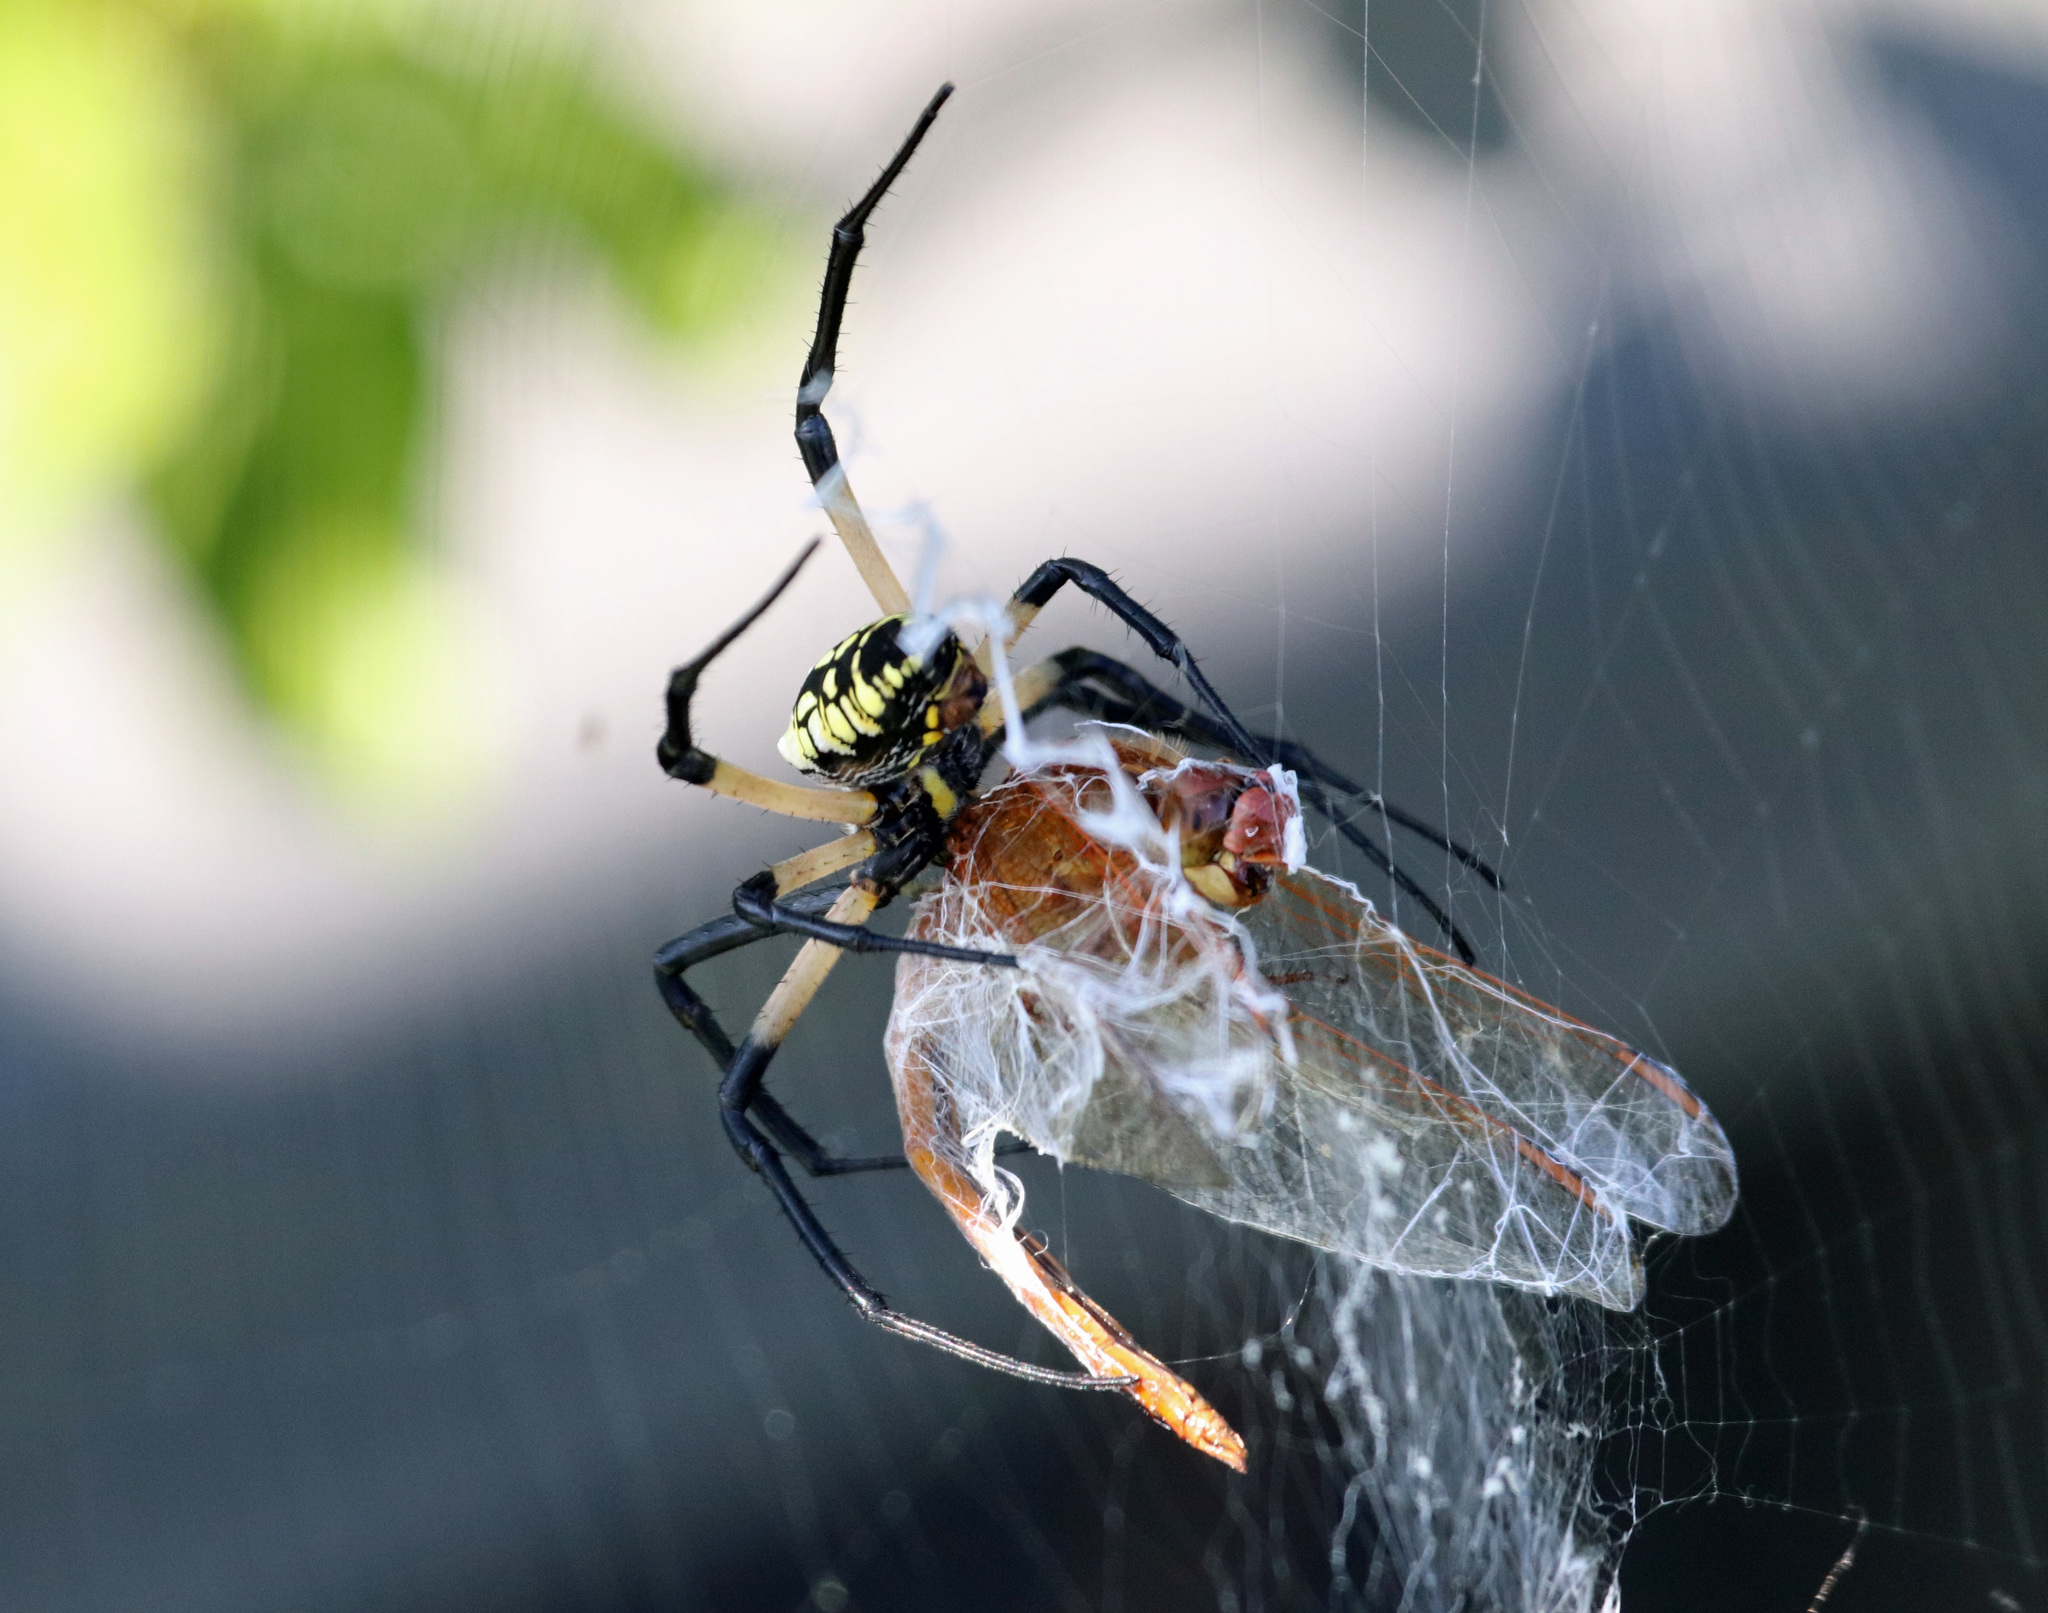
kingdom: Animalia
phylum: Arthropoda
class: Arachnida
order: Araneae
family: Araneidae
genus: Argiope
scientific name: Argiope aurantia
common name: Orb weavers
